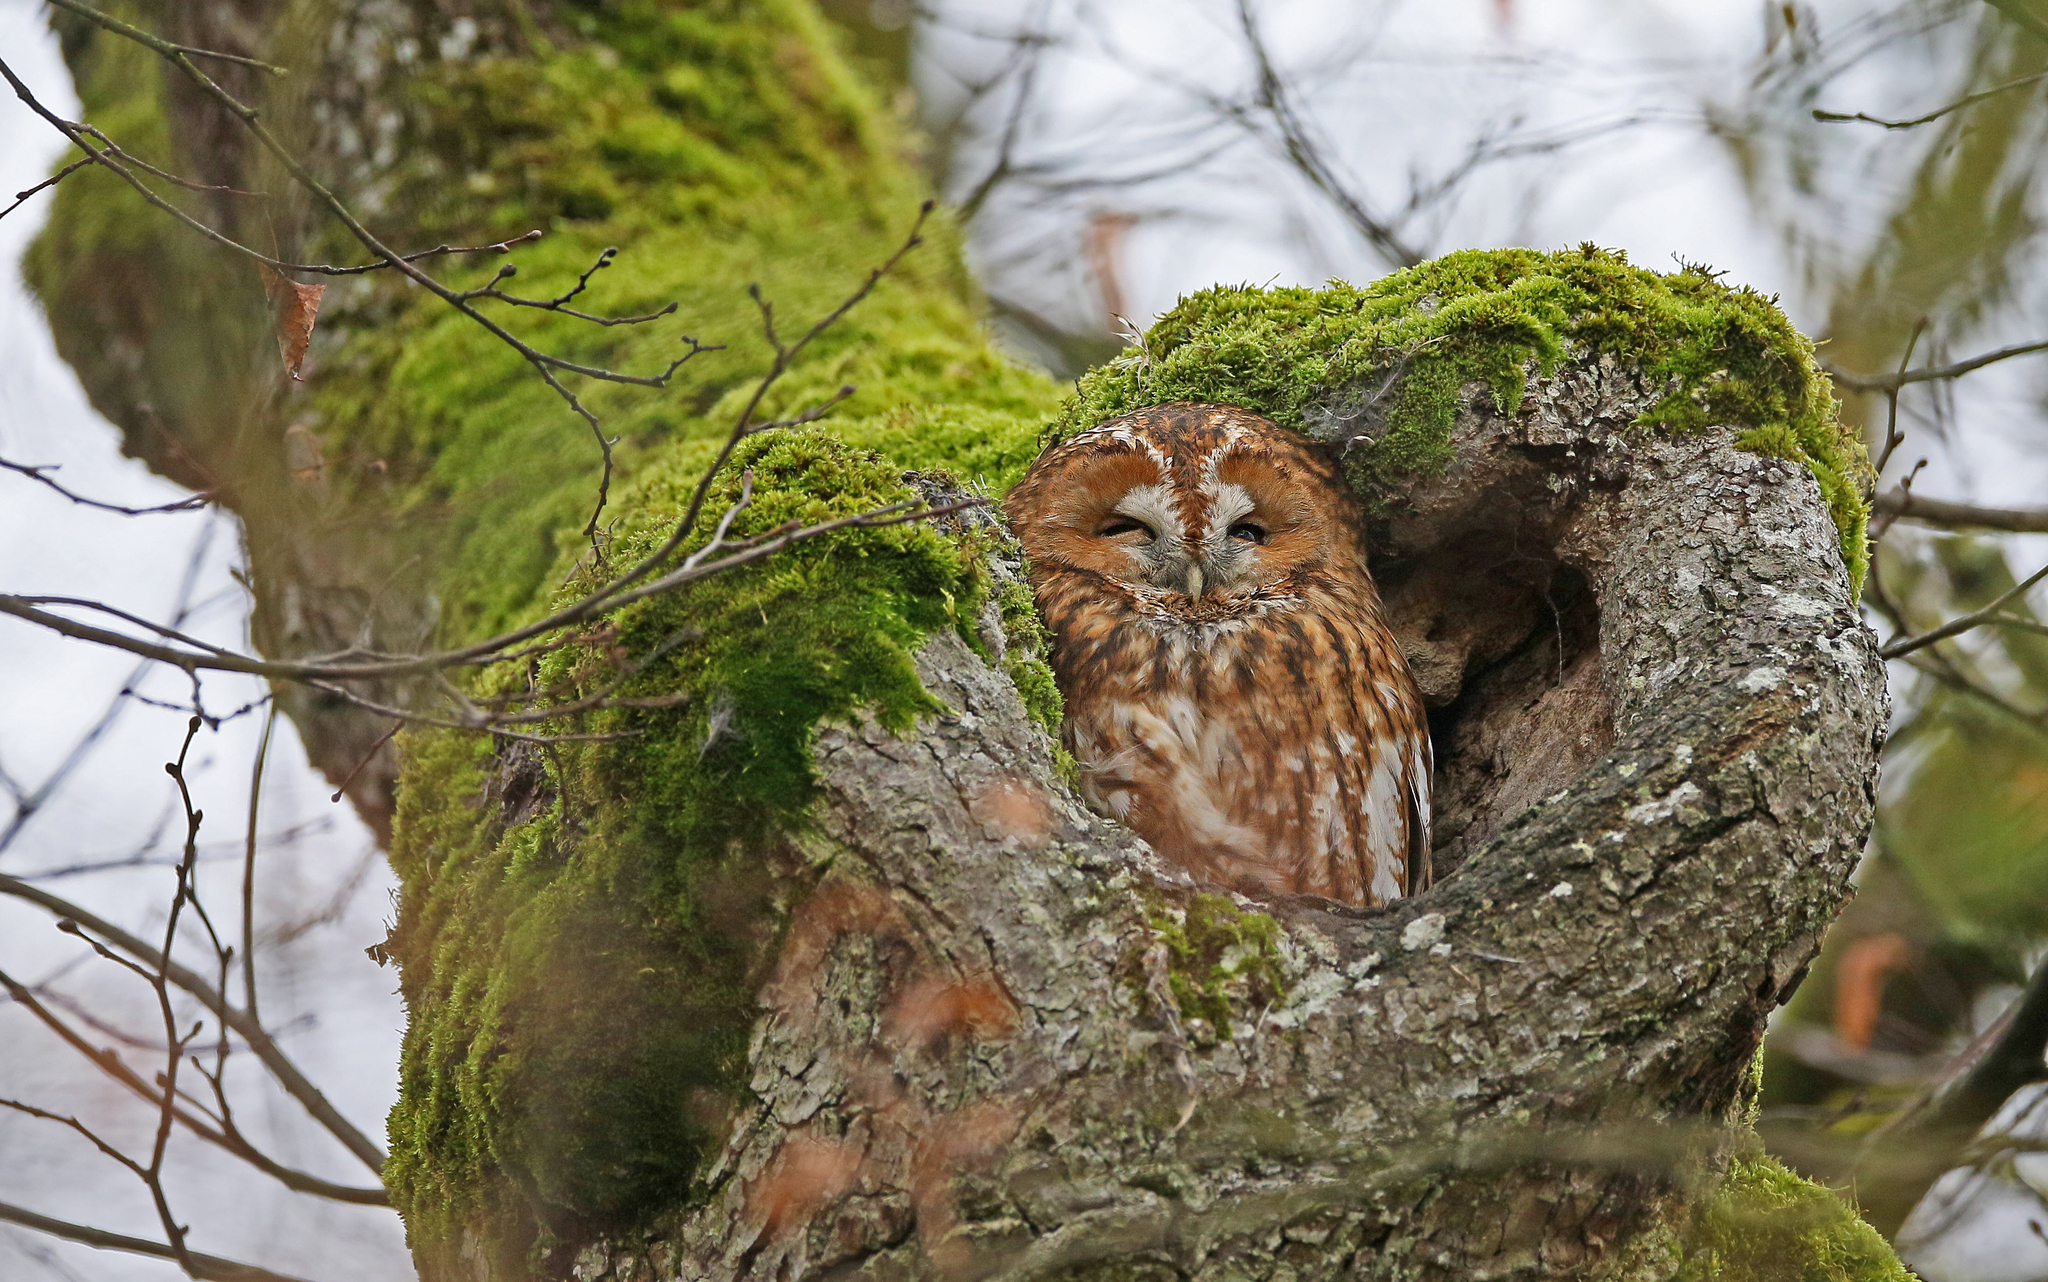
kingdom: Animalia
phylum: Chordata
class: Aves
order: Strigiformes
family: Strigidae
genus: Strix
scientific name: Strix aluco
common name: Tawny owl
